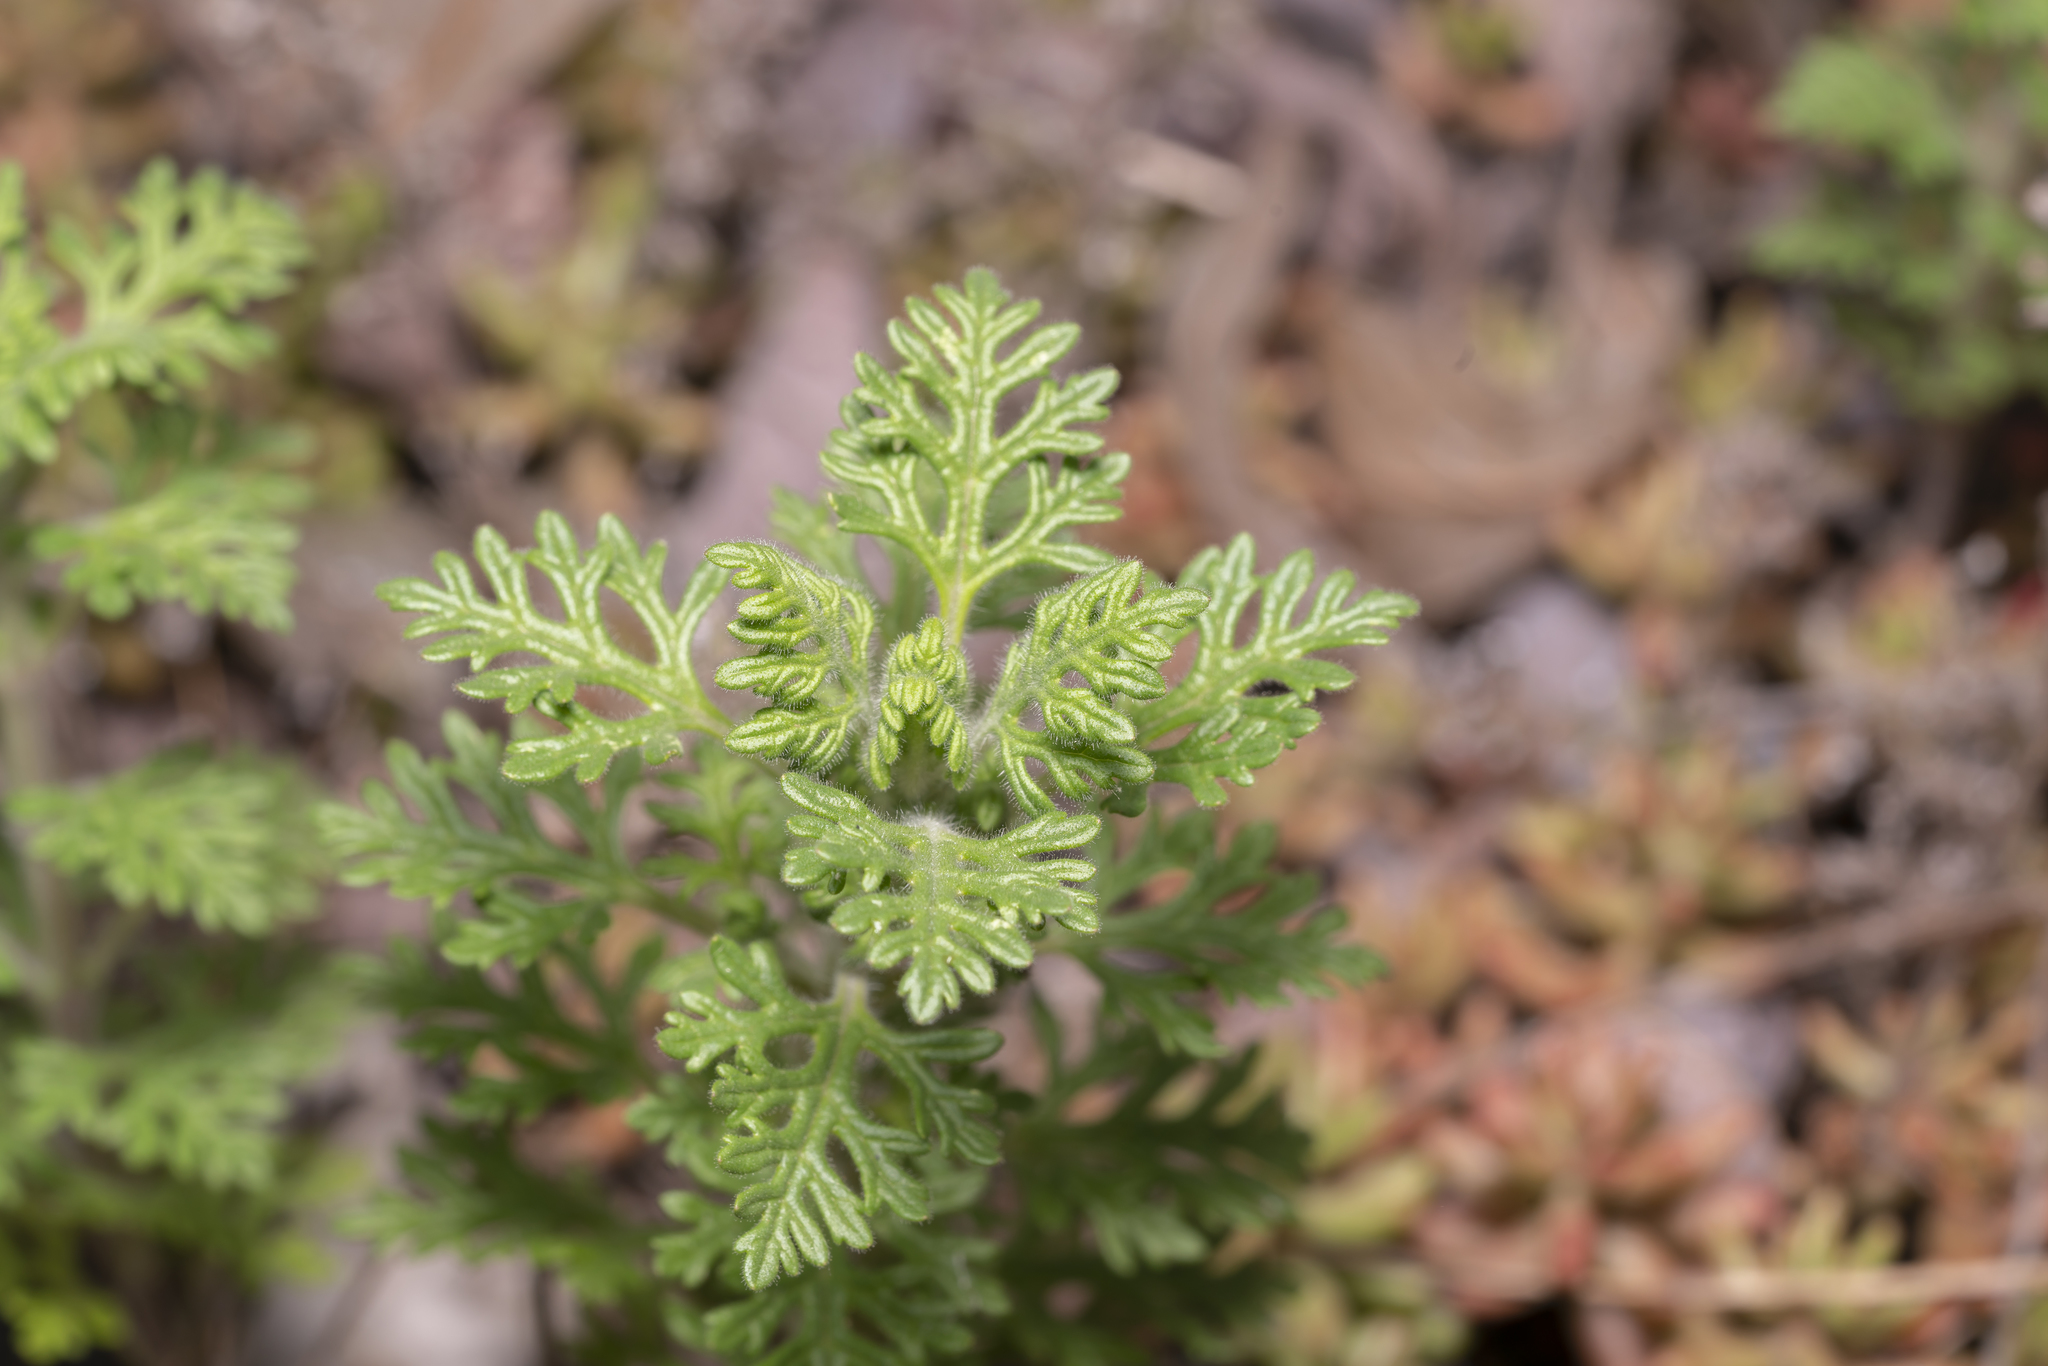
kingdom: Plantae
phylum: Tracheophyta
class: Magnoliopsida
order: Lamiales
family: Lamiaceae
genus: Teucrium
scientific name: Teucrium botrys
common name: Cut-leaved germander
